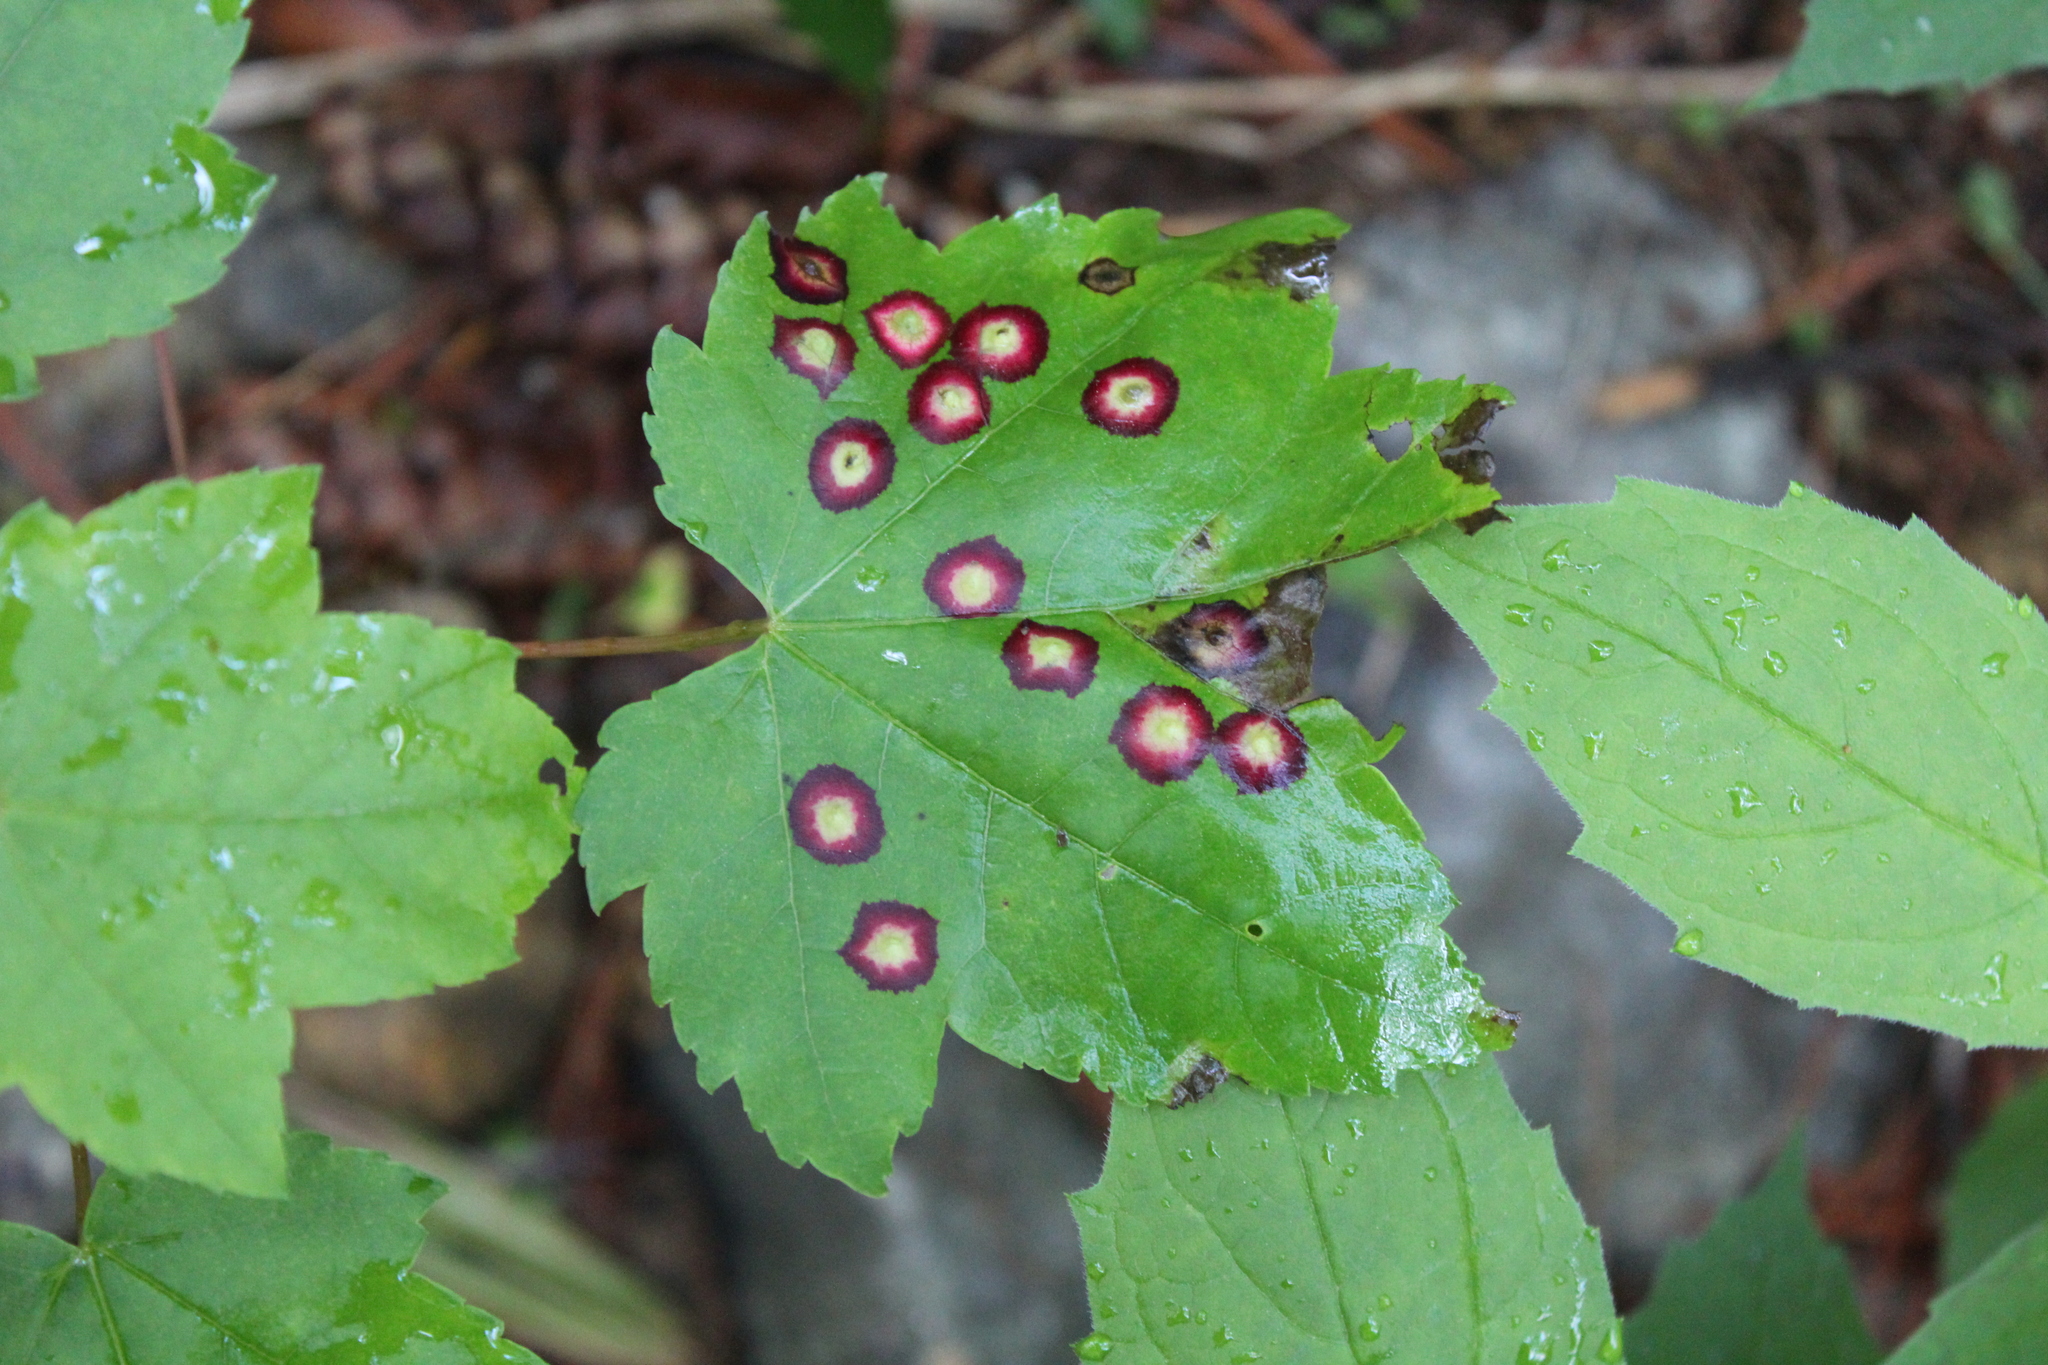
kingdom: Animalia
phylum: Arthropoda
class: Insecta
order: Diptera
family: Cecidomyiidae
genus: Acericecis
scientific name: Acericecis ocellaris
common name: Ocellate gall midge
